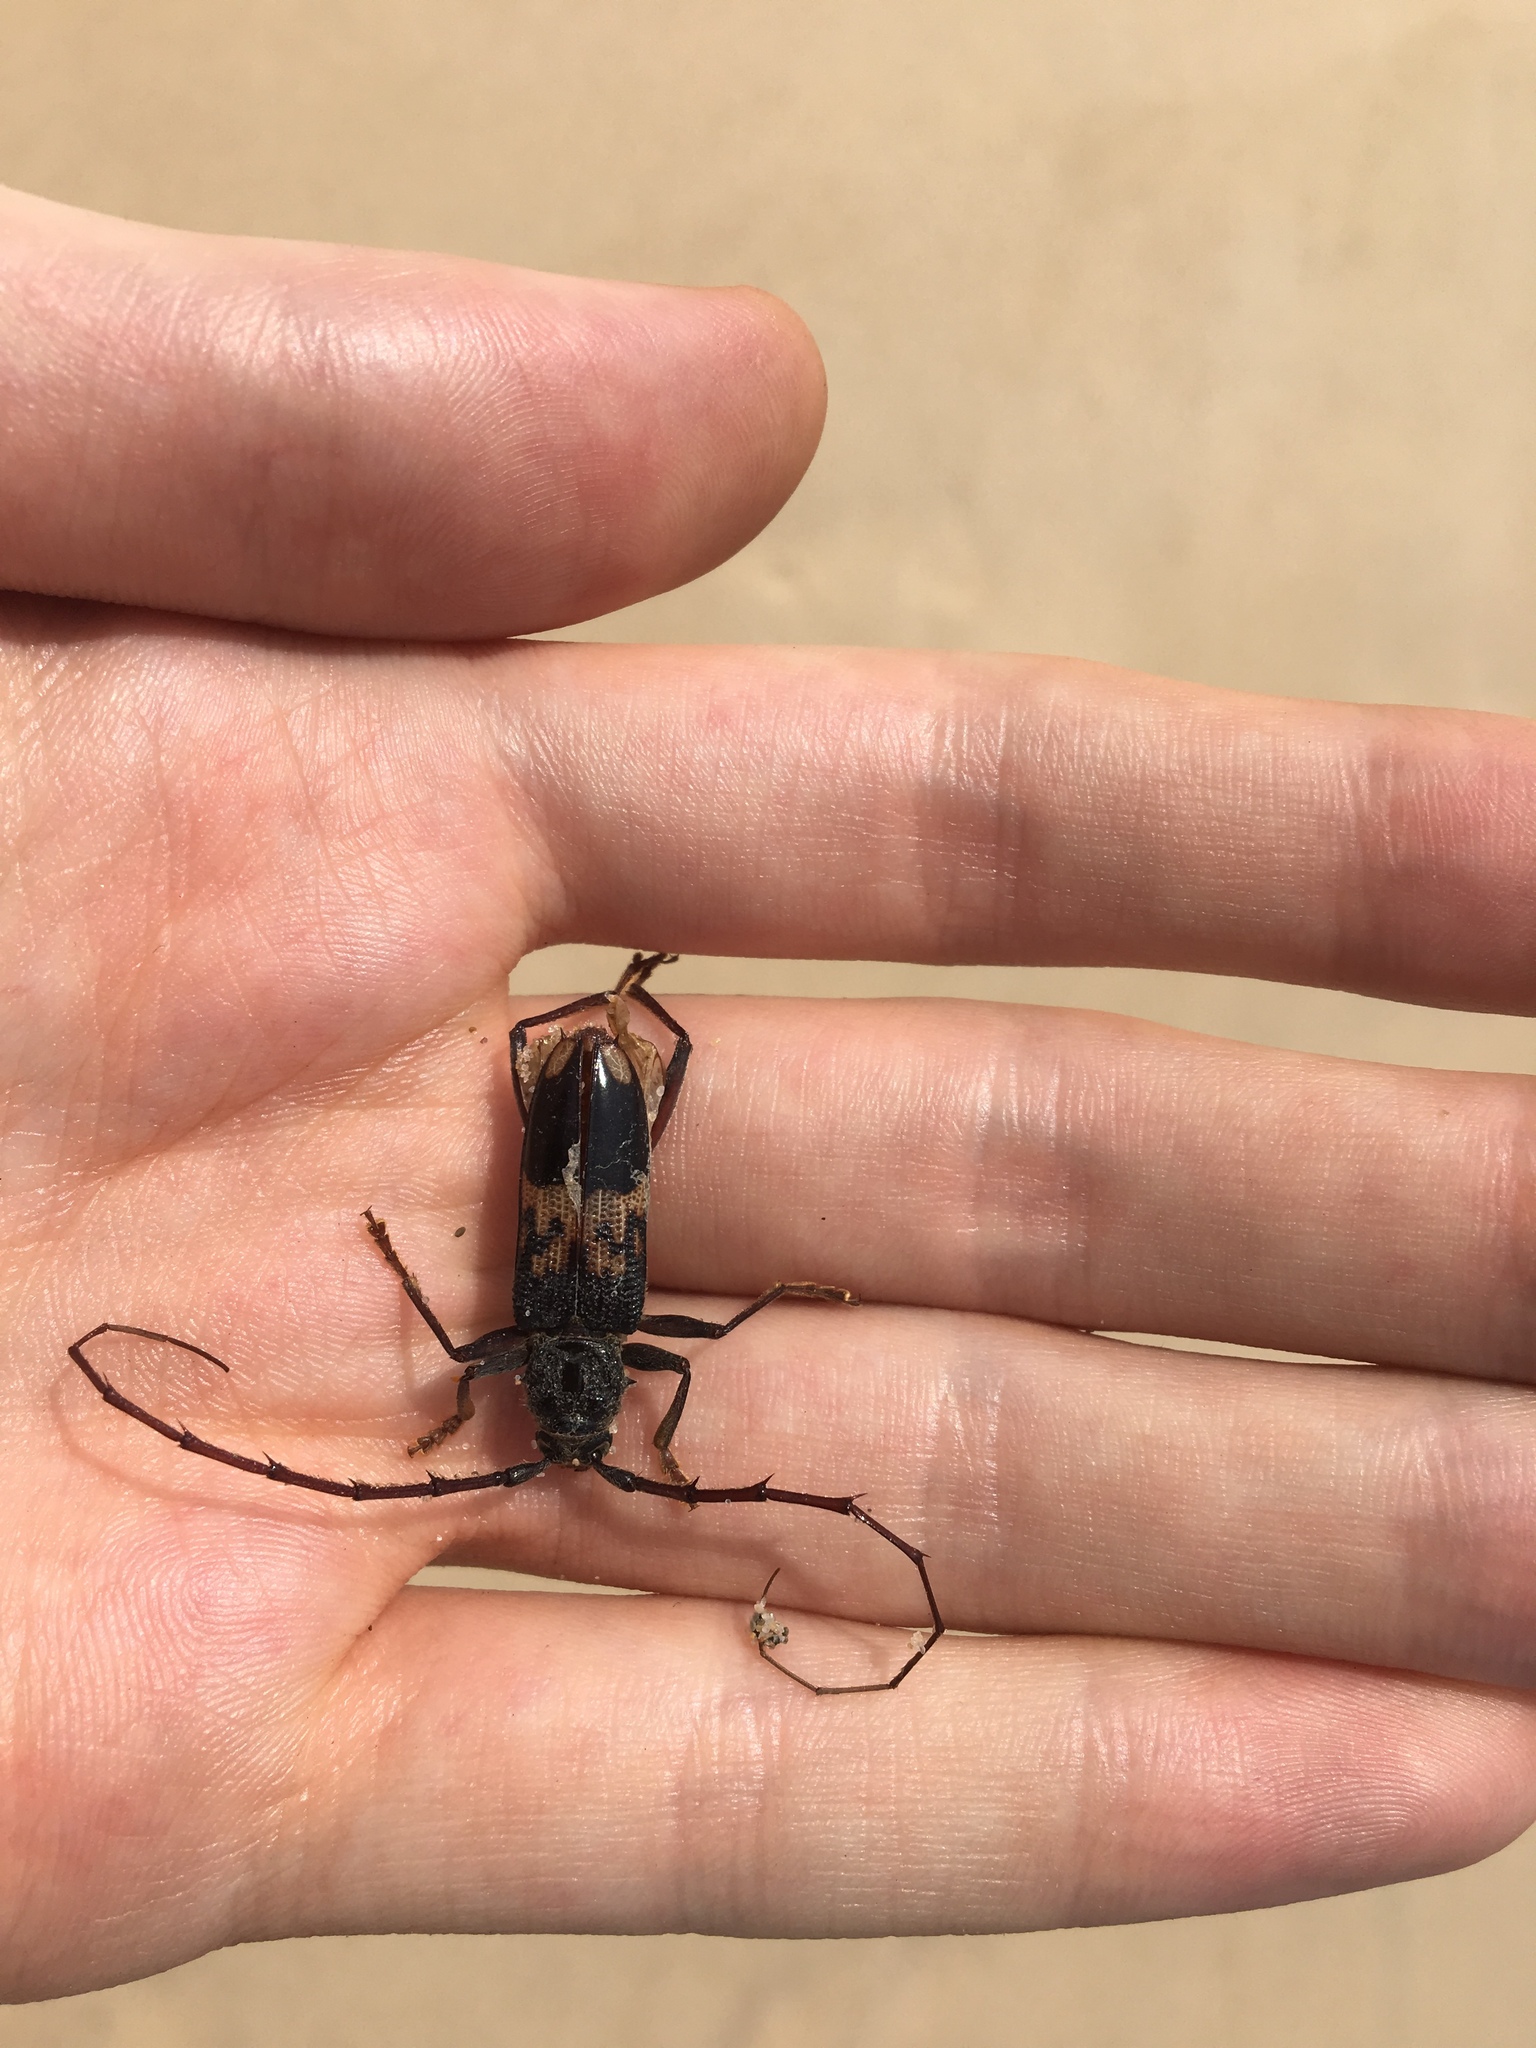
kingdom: Animalia
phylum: Arthropoda
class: Insecta
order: Coleoptera
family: Cerambycidae
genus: Phoracantha
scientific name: Phoracantha semipunctata
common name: Eucalyptus longhorn borer
